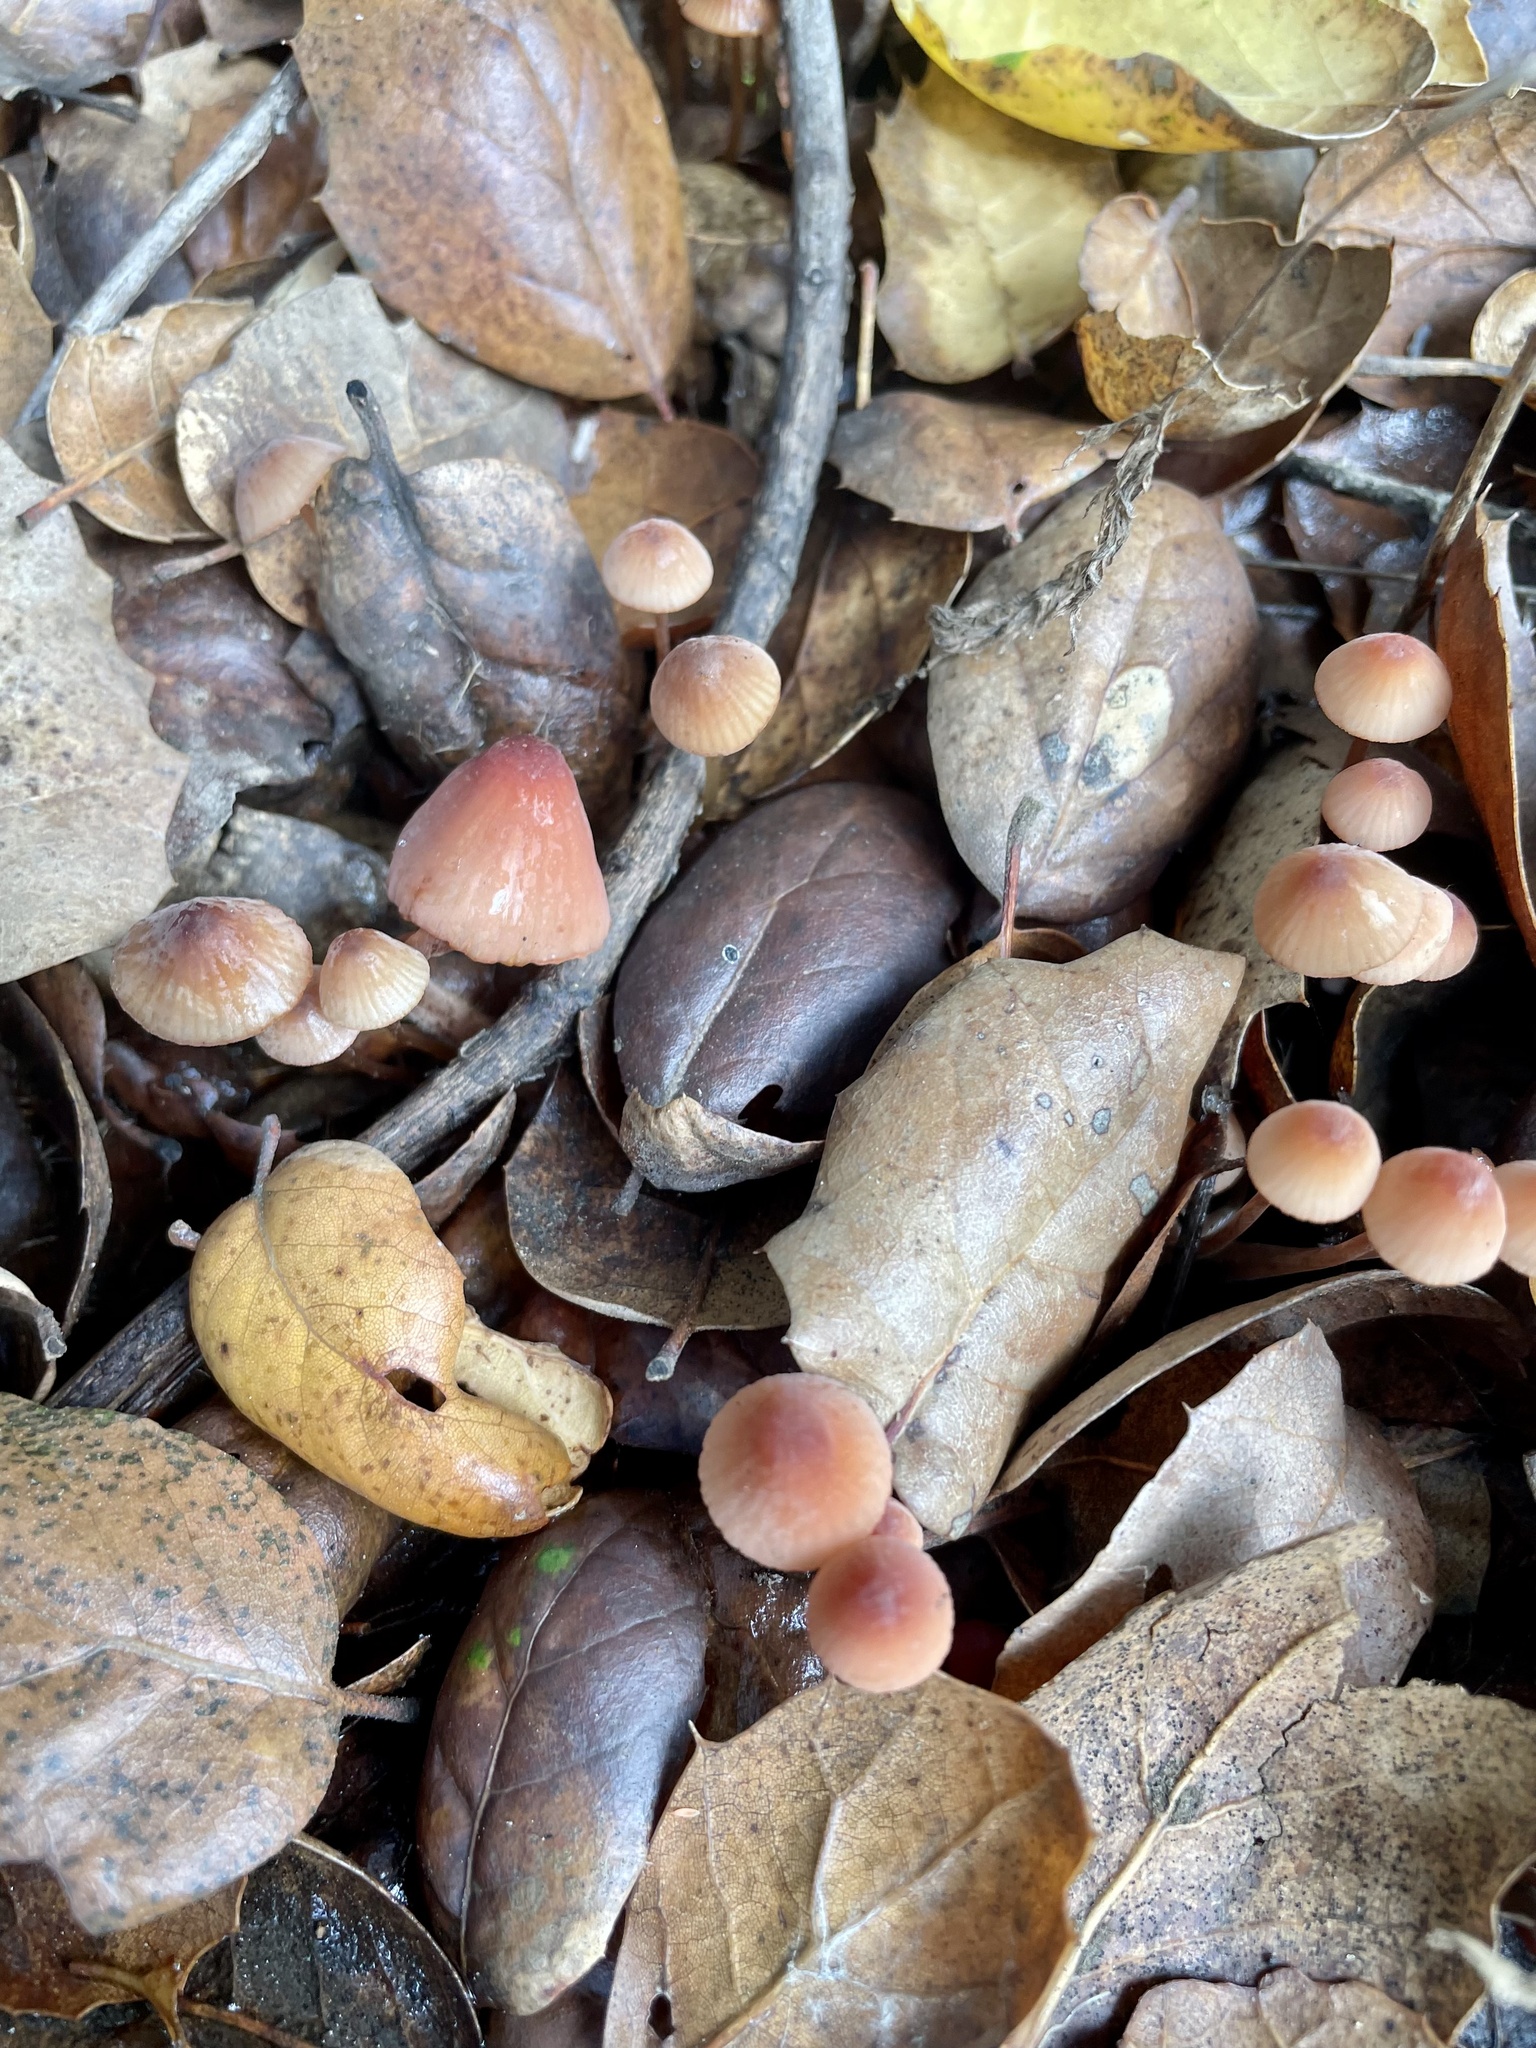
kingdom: Fungi
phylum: Basidiomycota
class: Agaricomycetes
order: Agaricales
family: Mycenaceae
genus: Mycena
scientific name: Mycena
